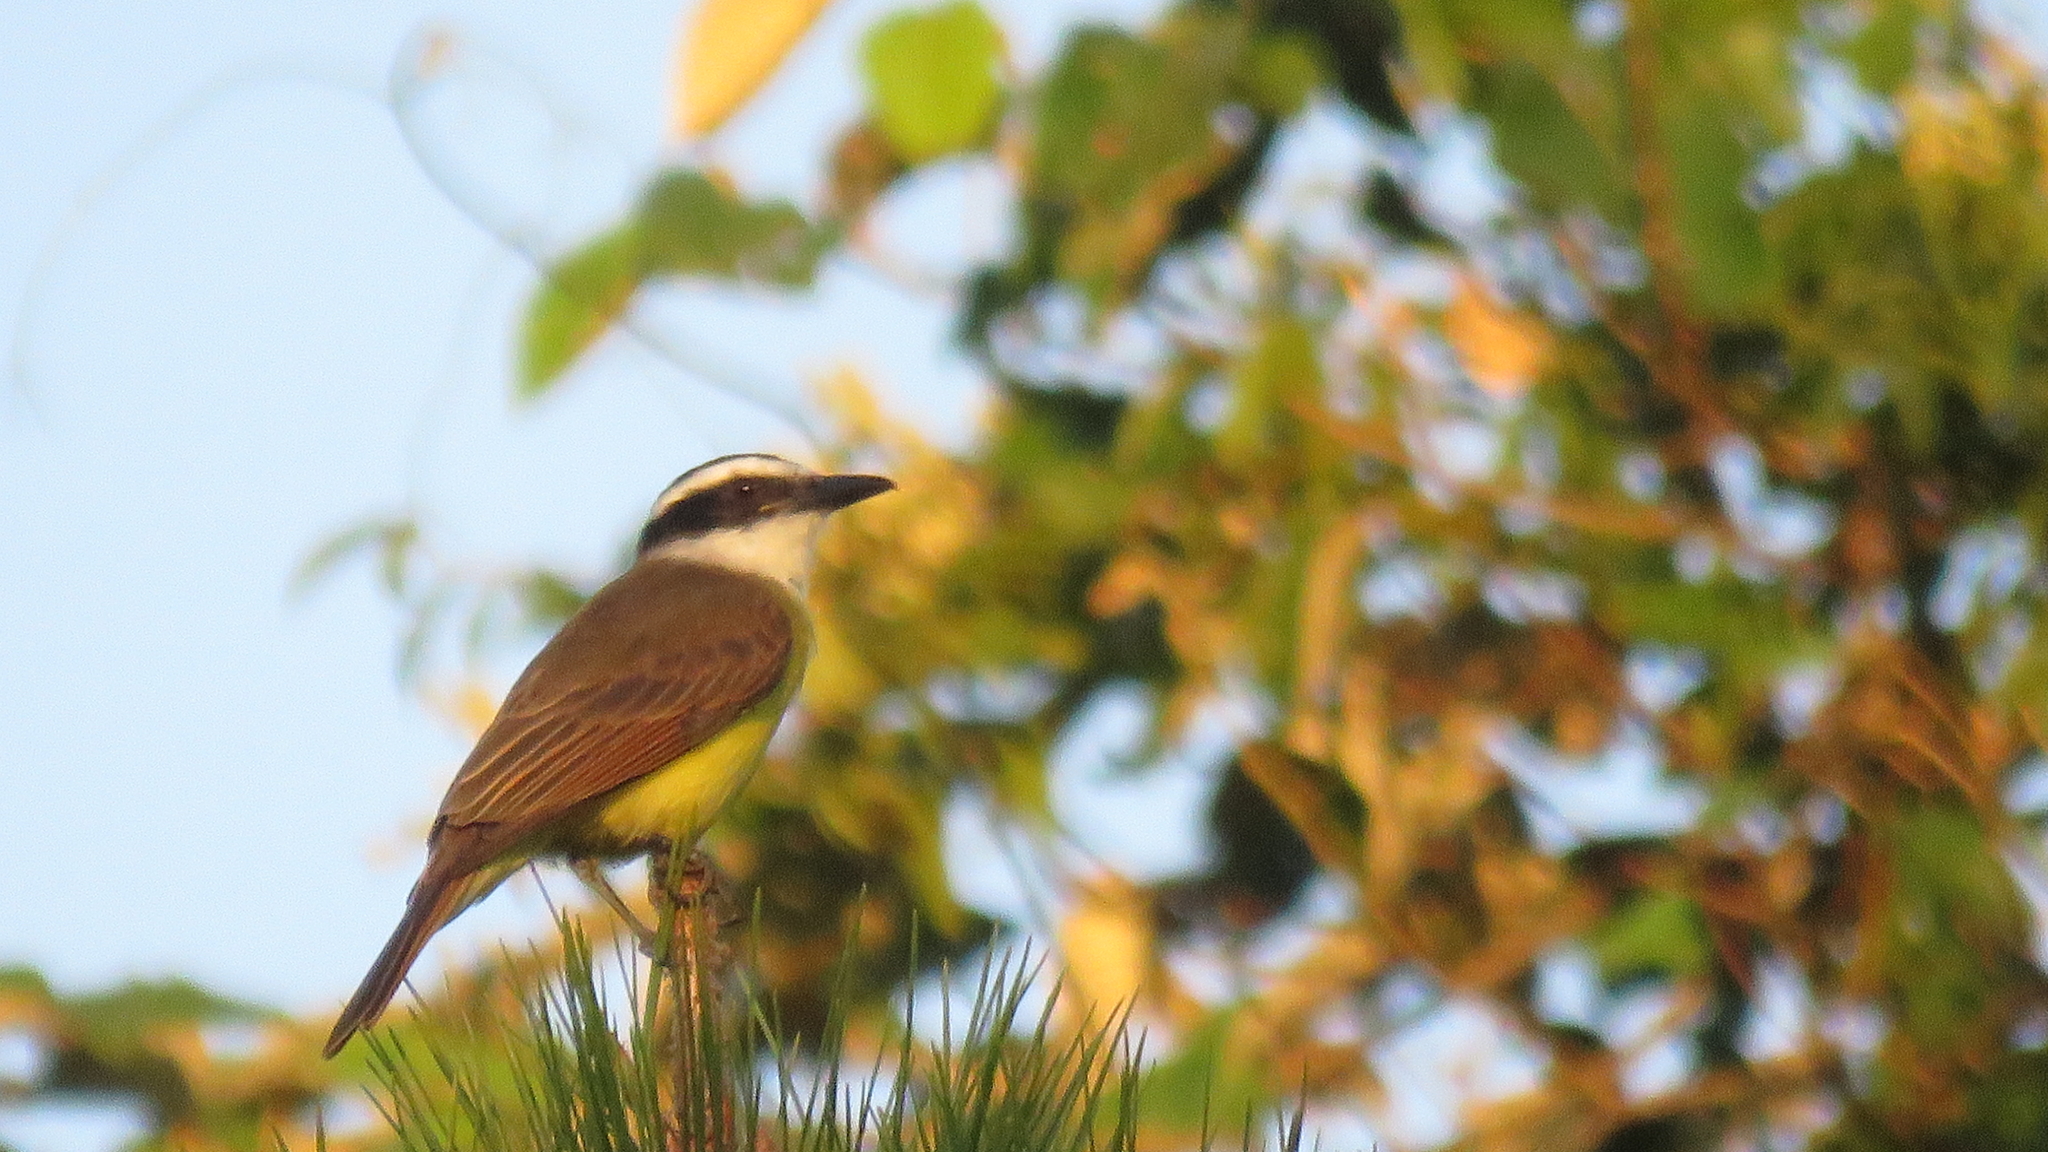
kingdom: Animalia
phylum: Chordata
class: Aves
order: Passeriformes
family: Tyrannidae
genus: Pitangus
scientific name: Pitangus sulphuratus
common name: Great kiskadee
